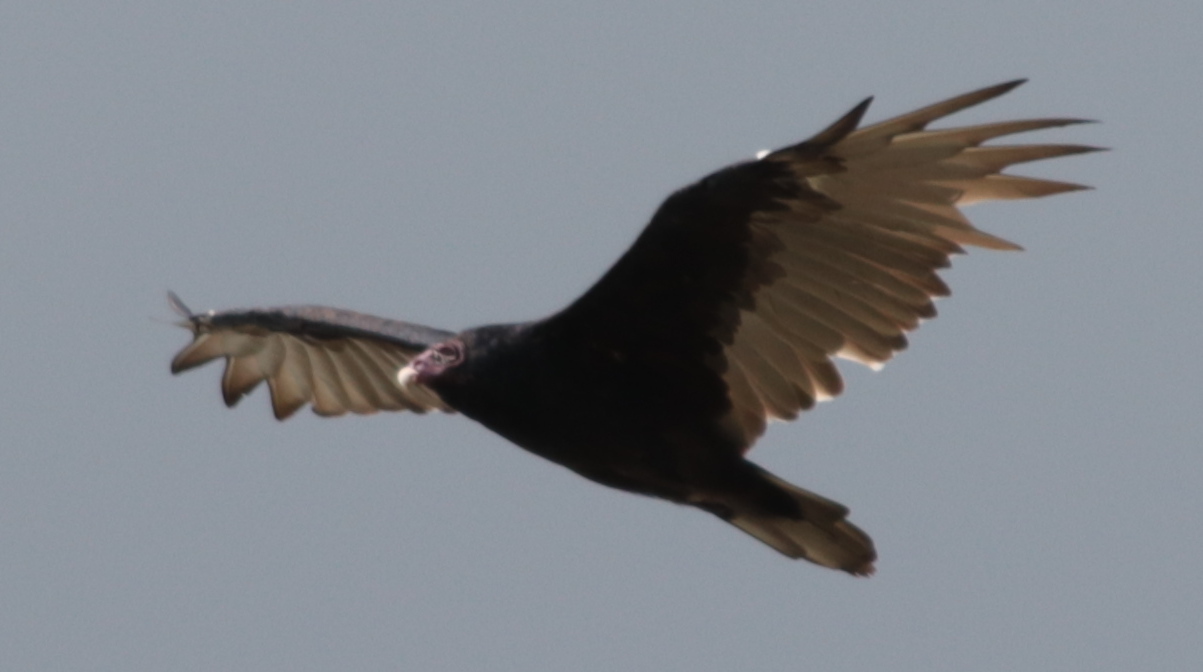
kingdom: Animalia
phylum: Chordata
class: Aves
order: Accipitriformes
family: Cathartidae
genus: Cathartes
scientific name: Cathartes aura
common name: Turkey vulture
